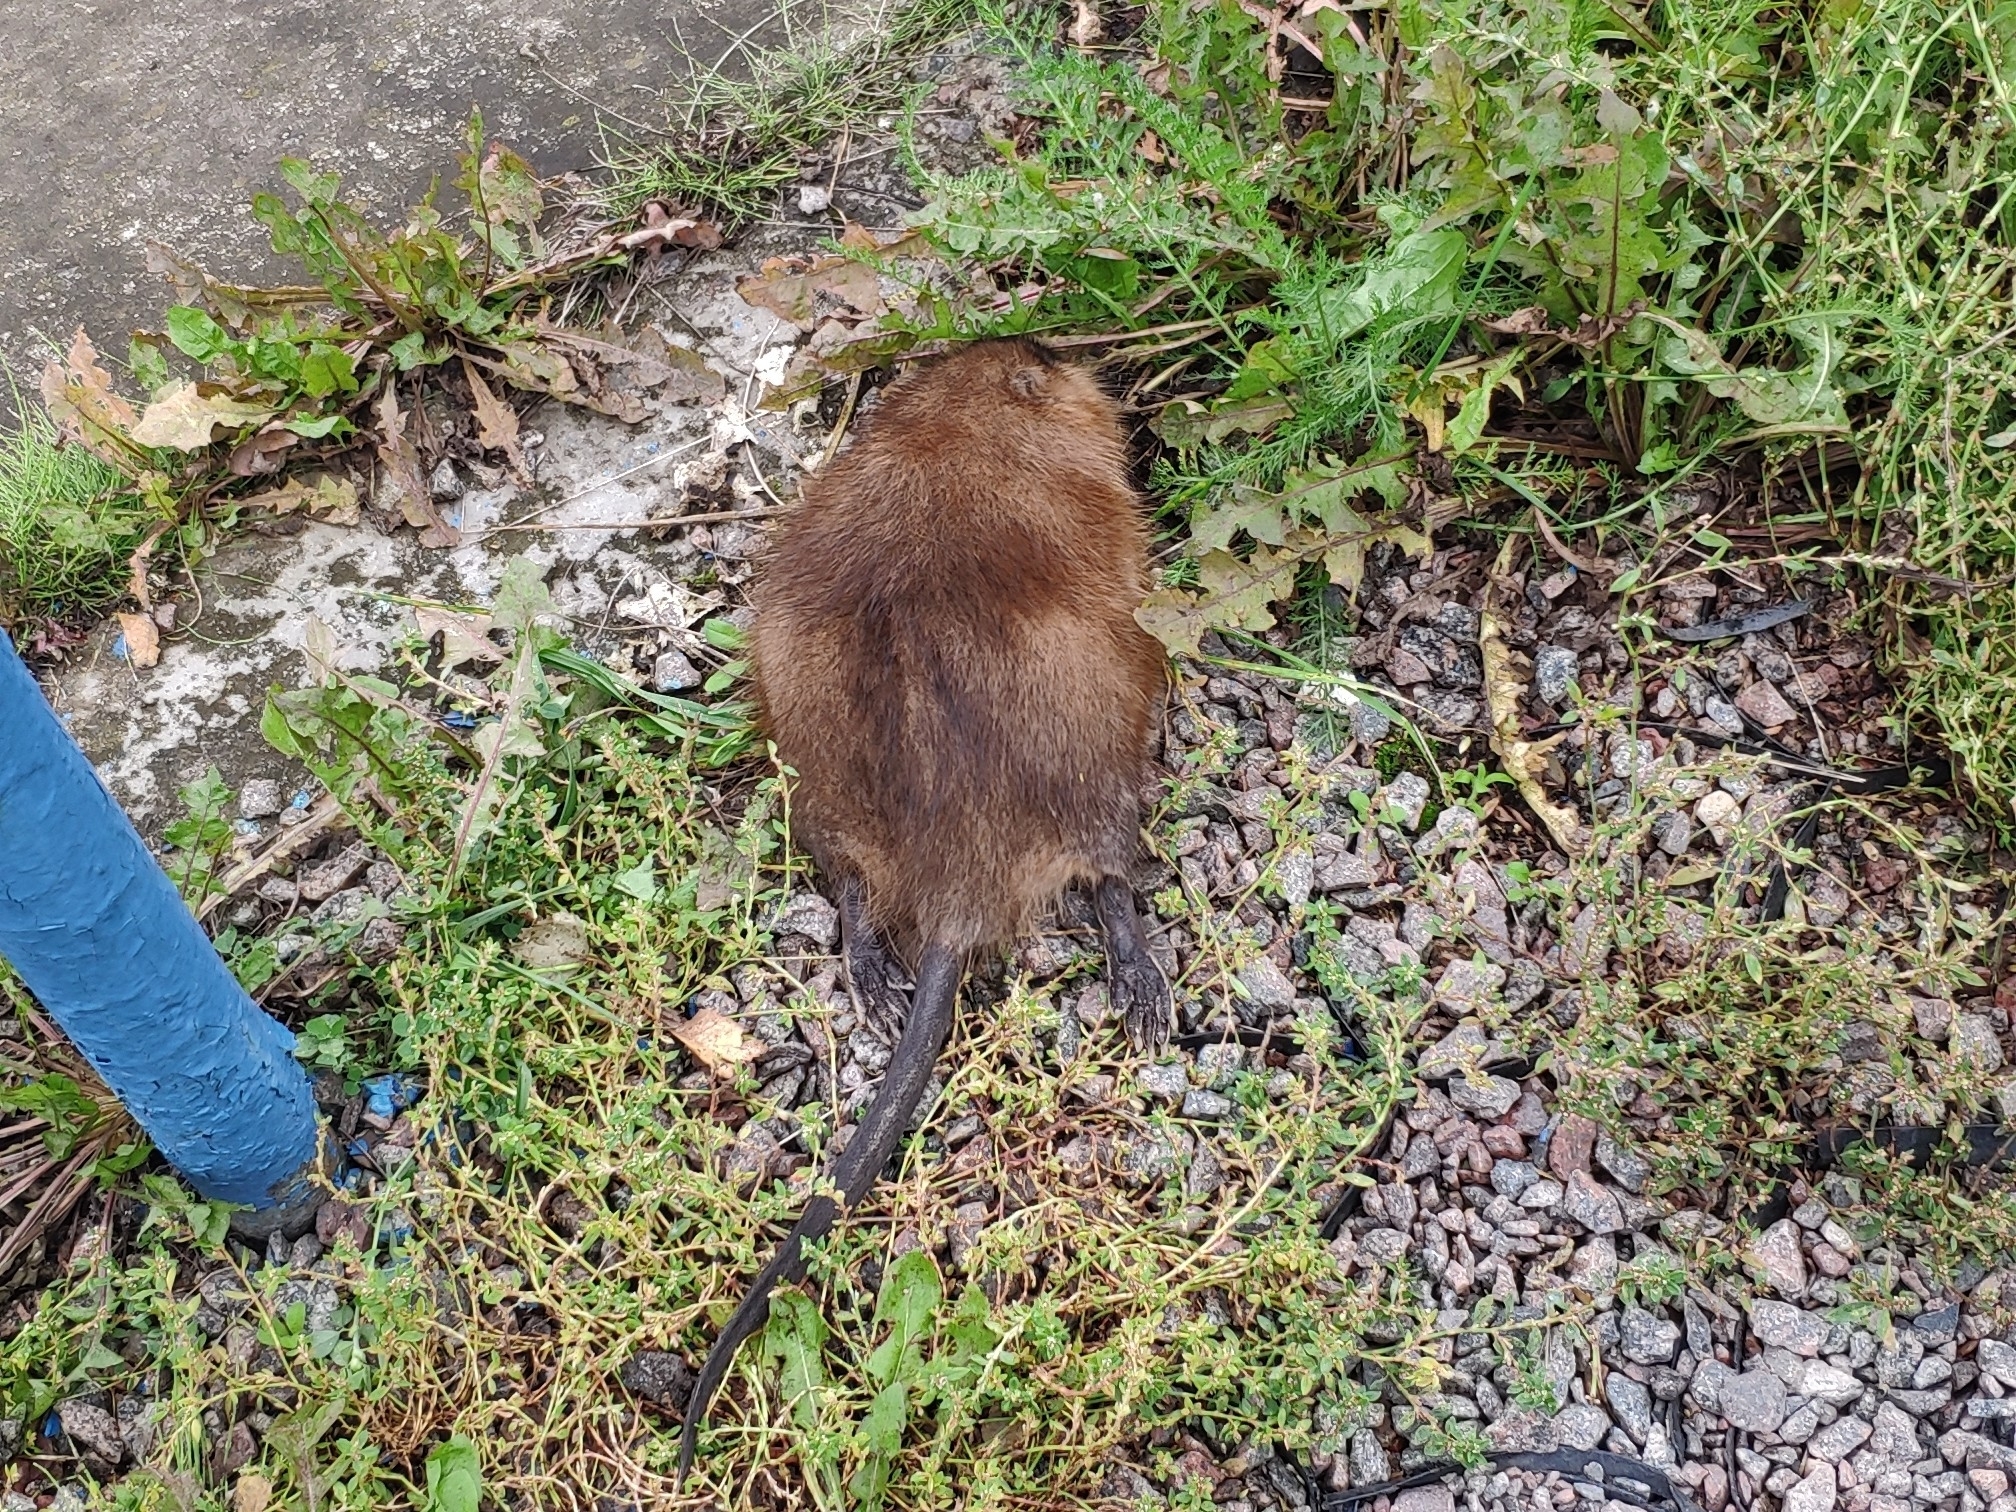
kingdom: Animalia
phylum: Chordata
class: Mammalia
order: Rodentia
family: Cricetidae
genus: Ondatra
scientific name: Ondatra zibethicus
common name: Muskrat
